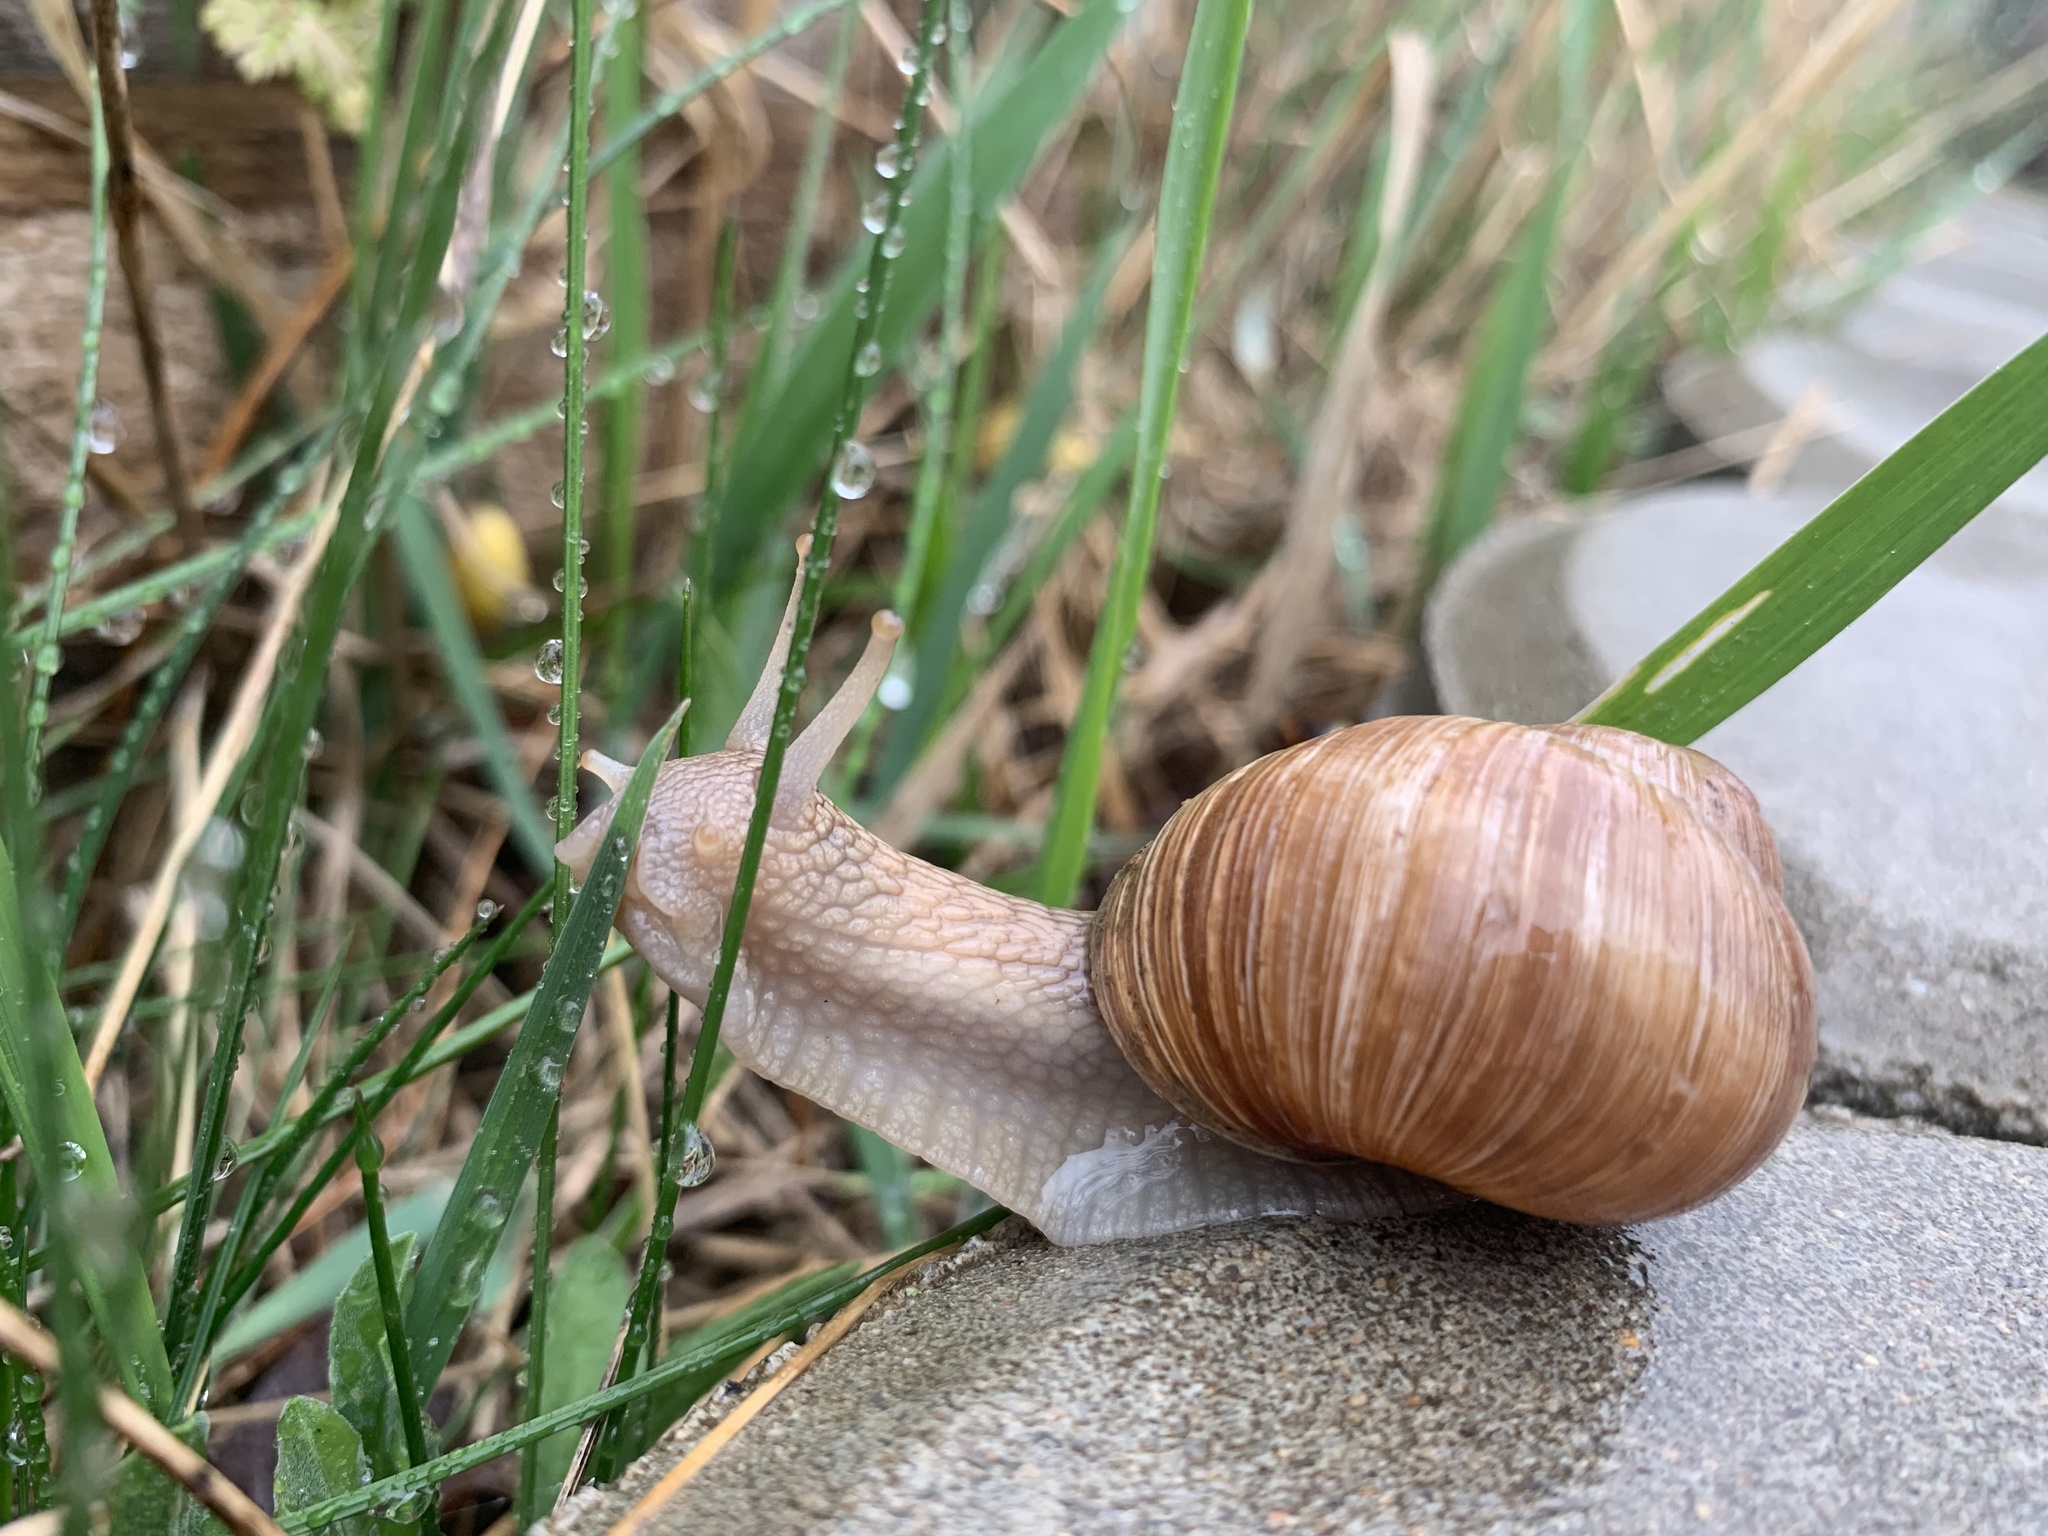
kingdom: Animalia
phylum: Mollusca
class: Gastropoda
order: Stylommatophora
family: Helicidae
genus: Helix
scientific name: Helix pomatia
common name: Roman snail
